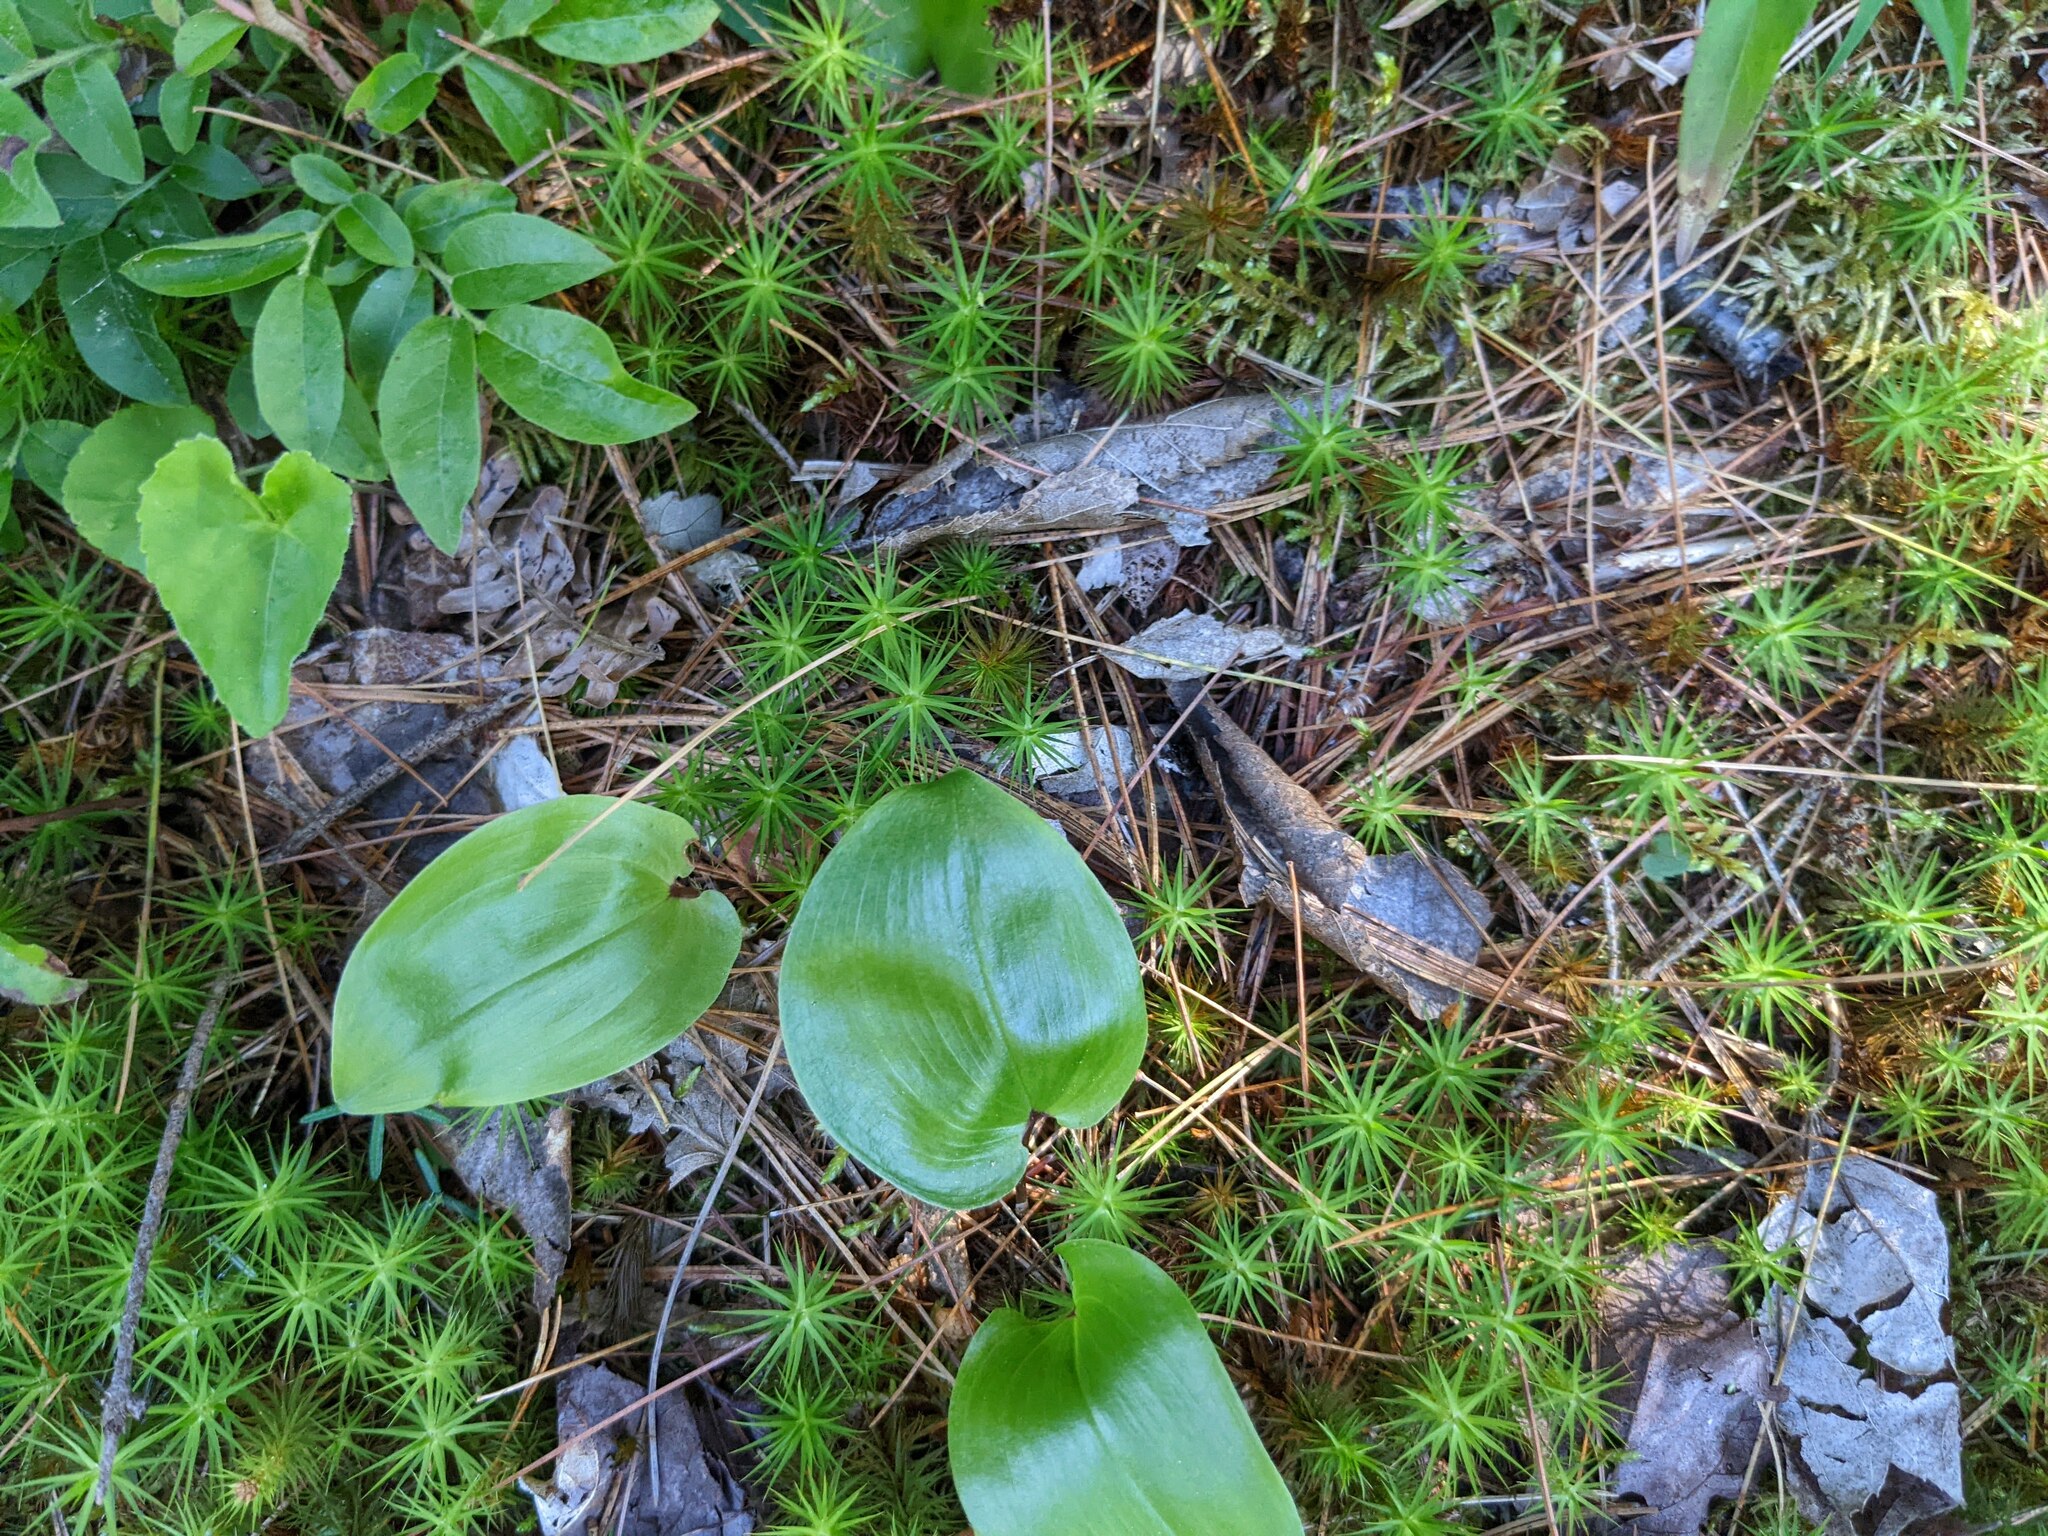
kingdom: Plantae
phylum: Tracheophyta
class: Liliopsida
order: Asparagales
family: Asparagaceae
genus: Maianthemum
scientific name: Maianthemum canadense
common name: False lily-of-the-valley
